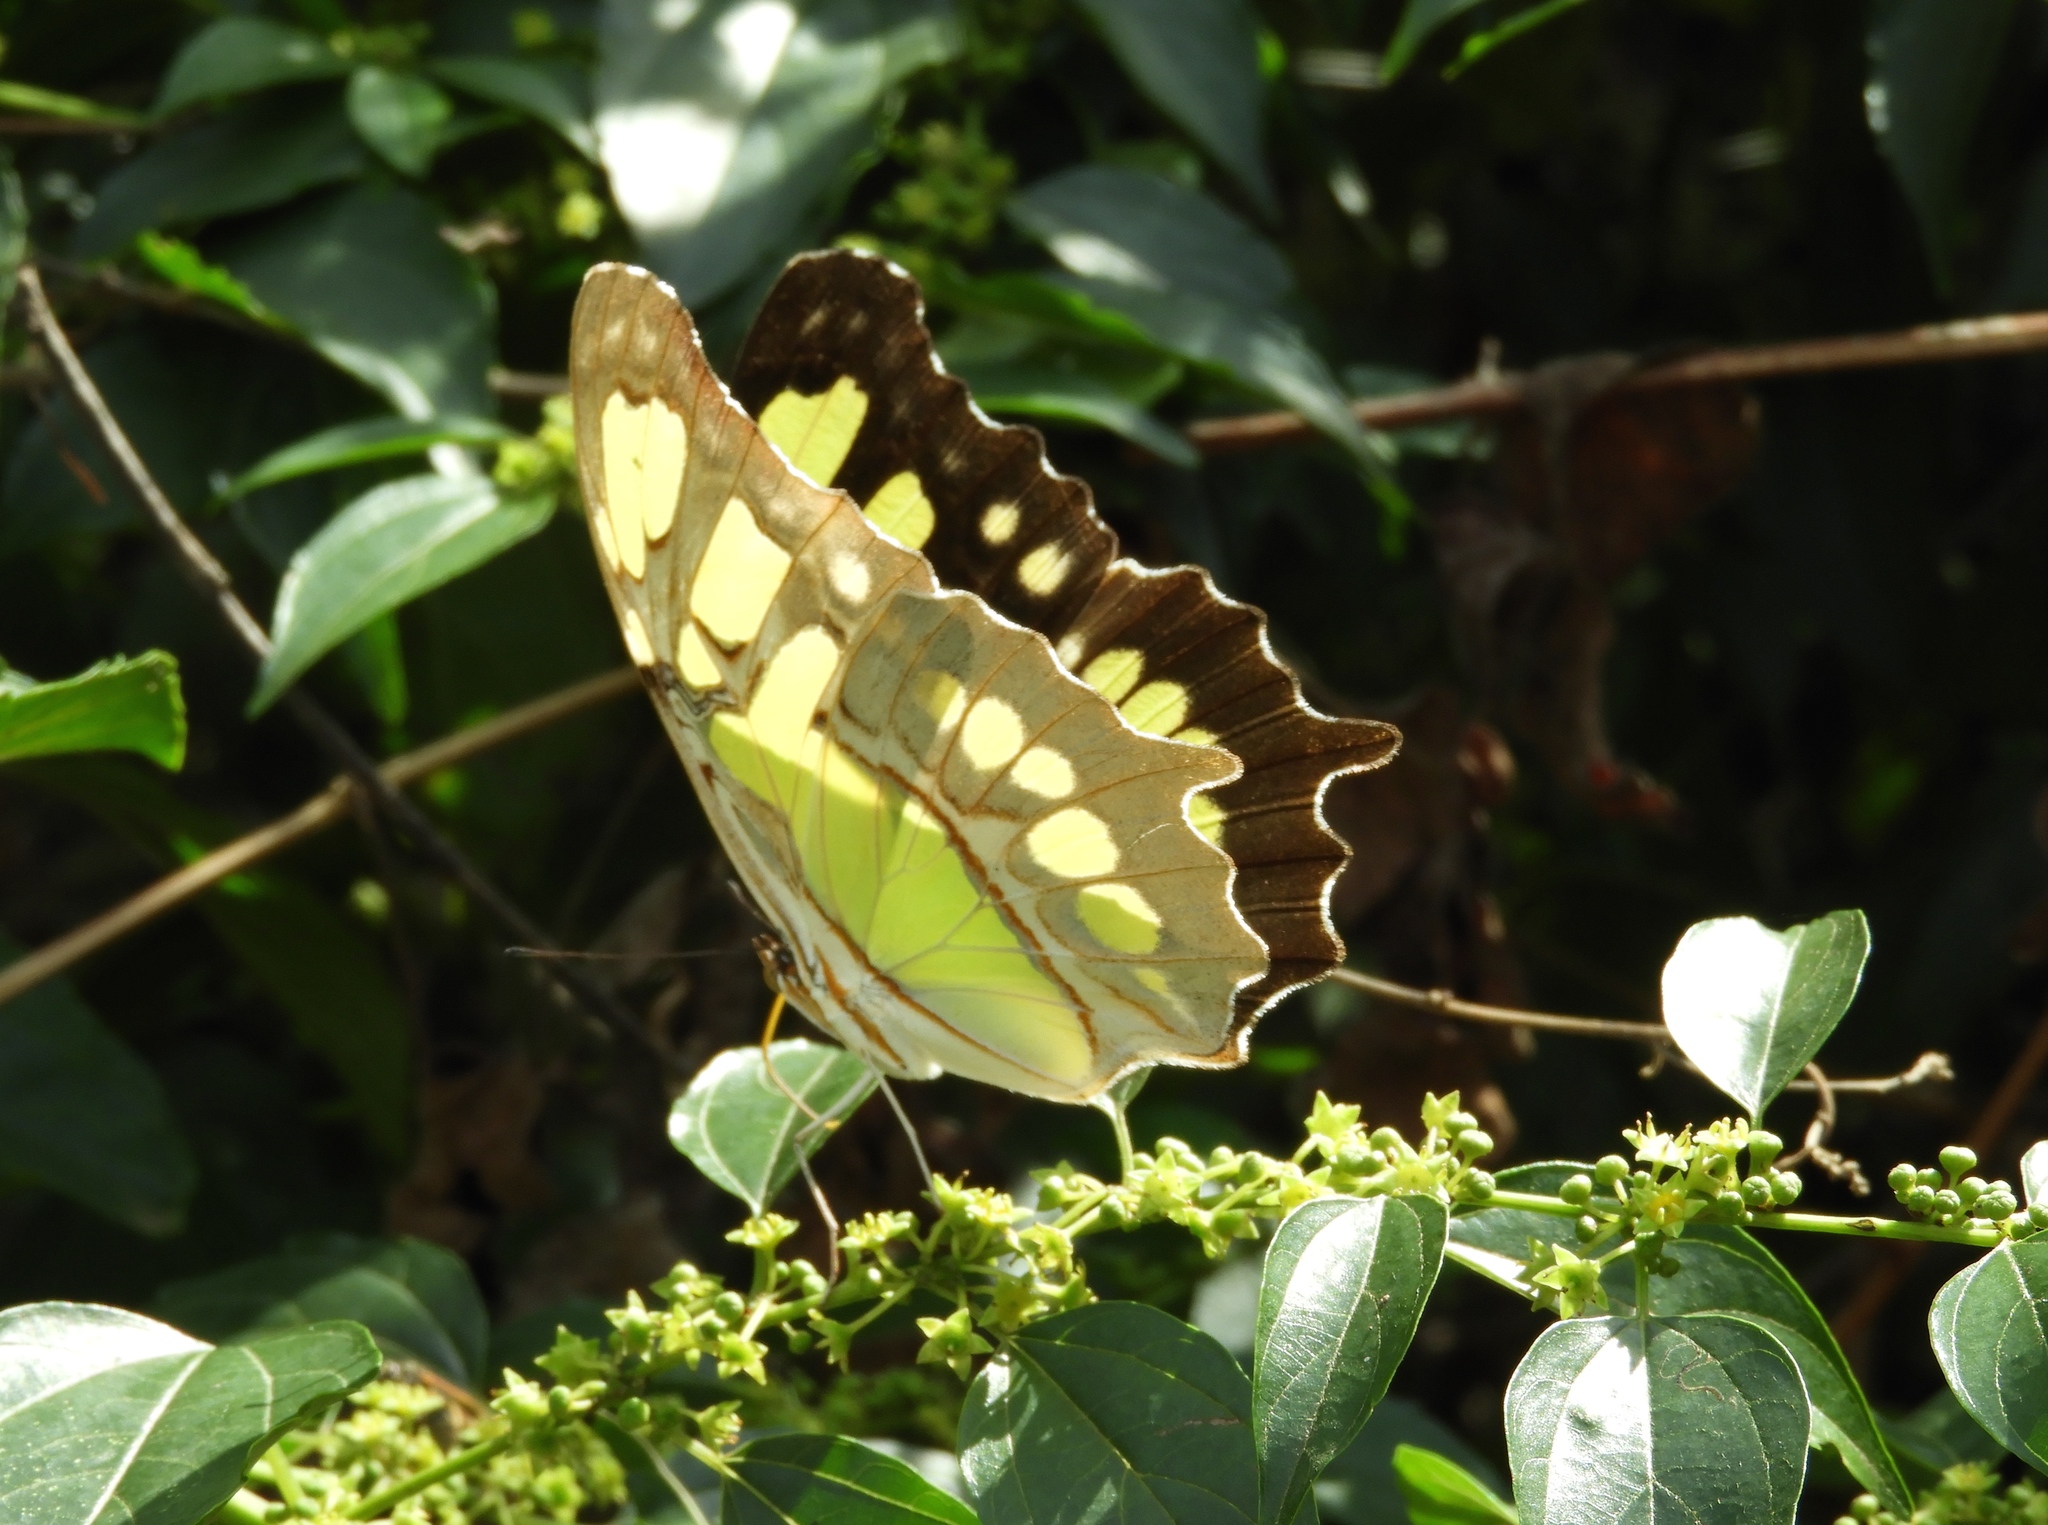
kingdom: Animalia
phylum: Arthropoda
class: Insecta
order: Lepidoptera
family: Nymphalidae
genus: Siproeta
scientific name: Siproeta stelenes
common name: Malachite
